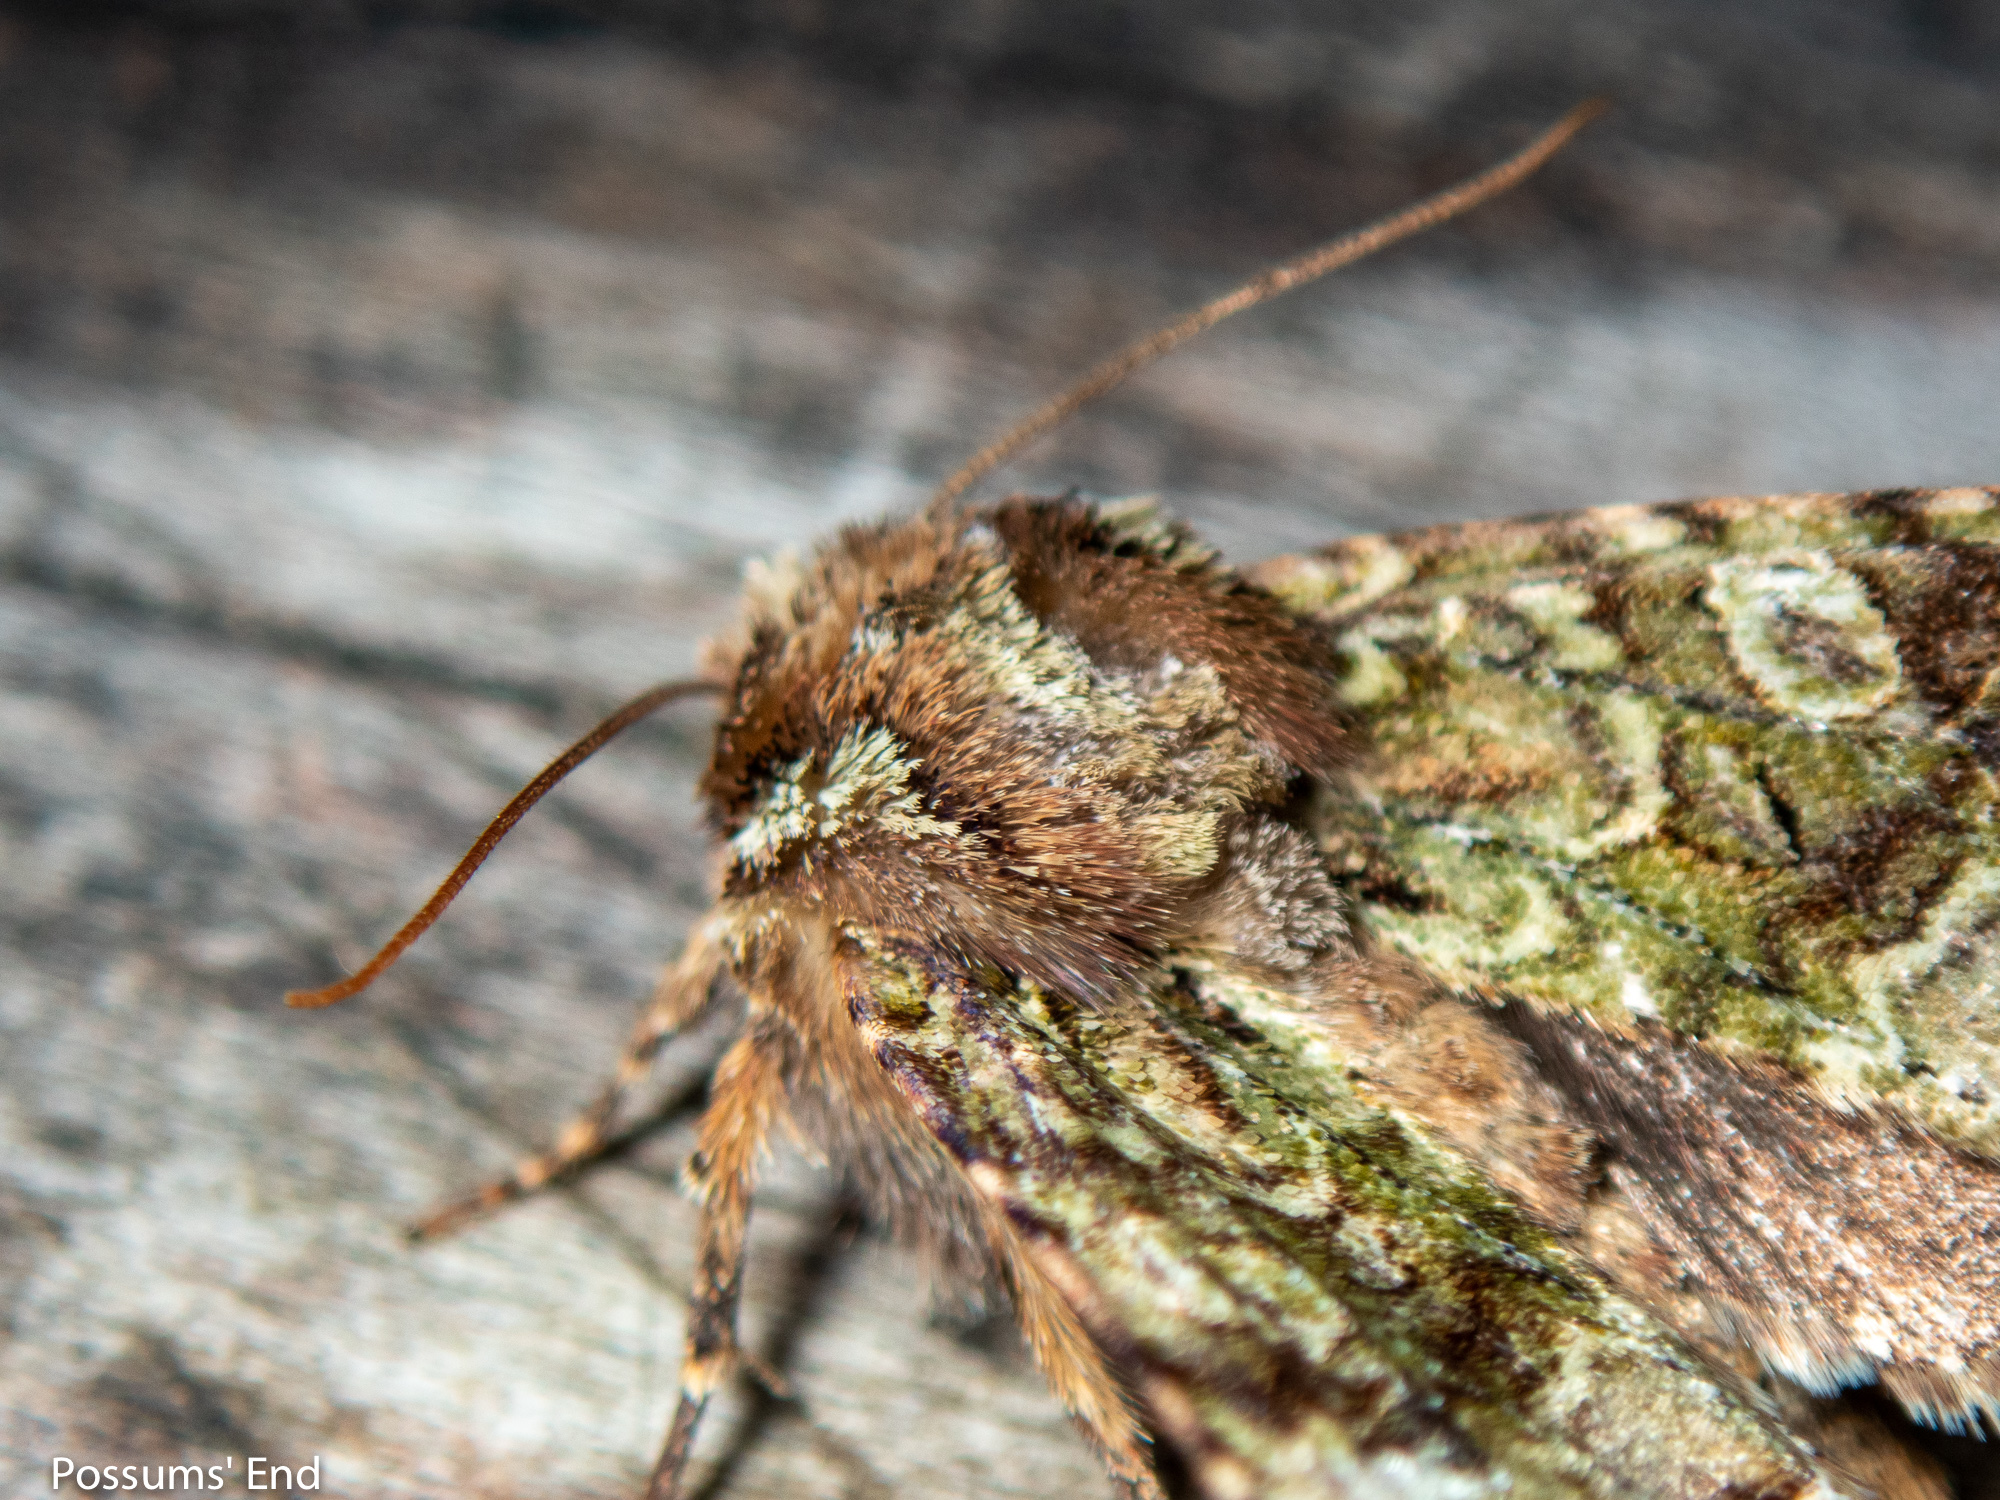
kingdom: Animalia
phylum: Arthropoda
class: Insecta
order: Lepidoptera
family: Noctuidae
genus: Meterana
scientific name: Meterana
